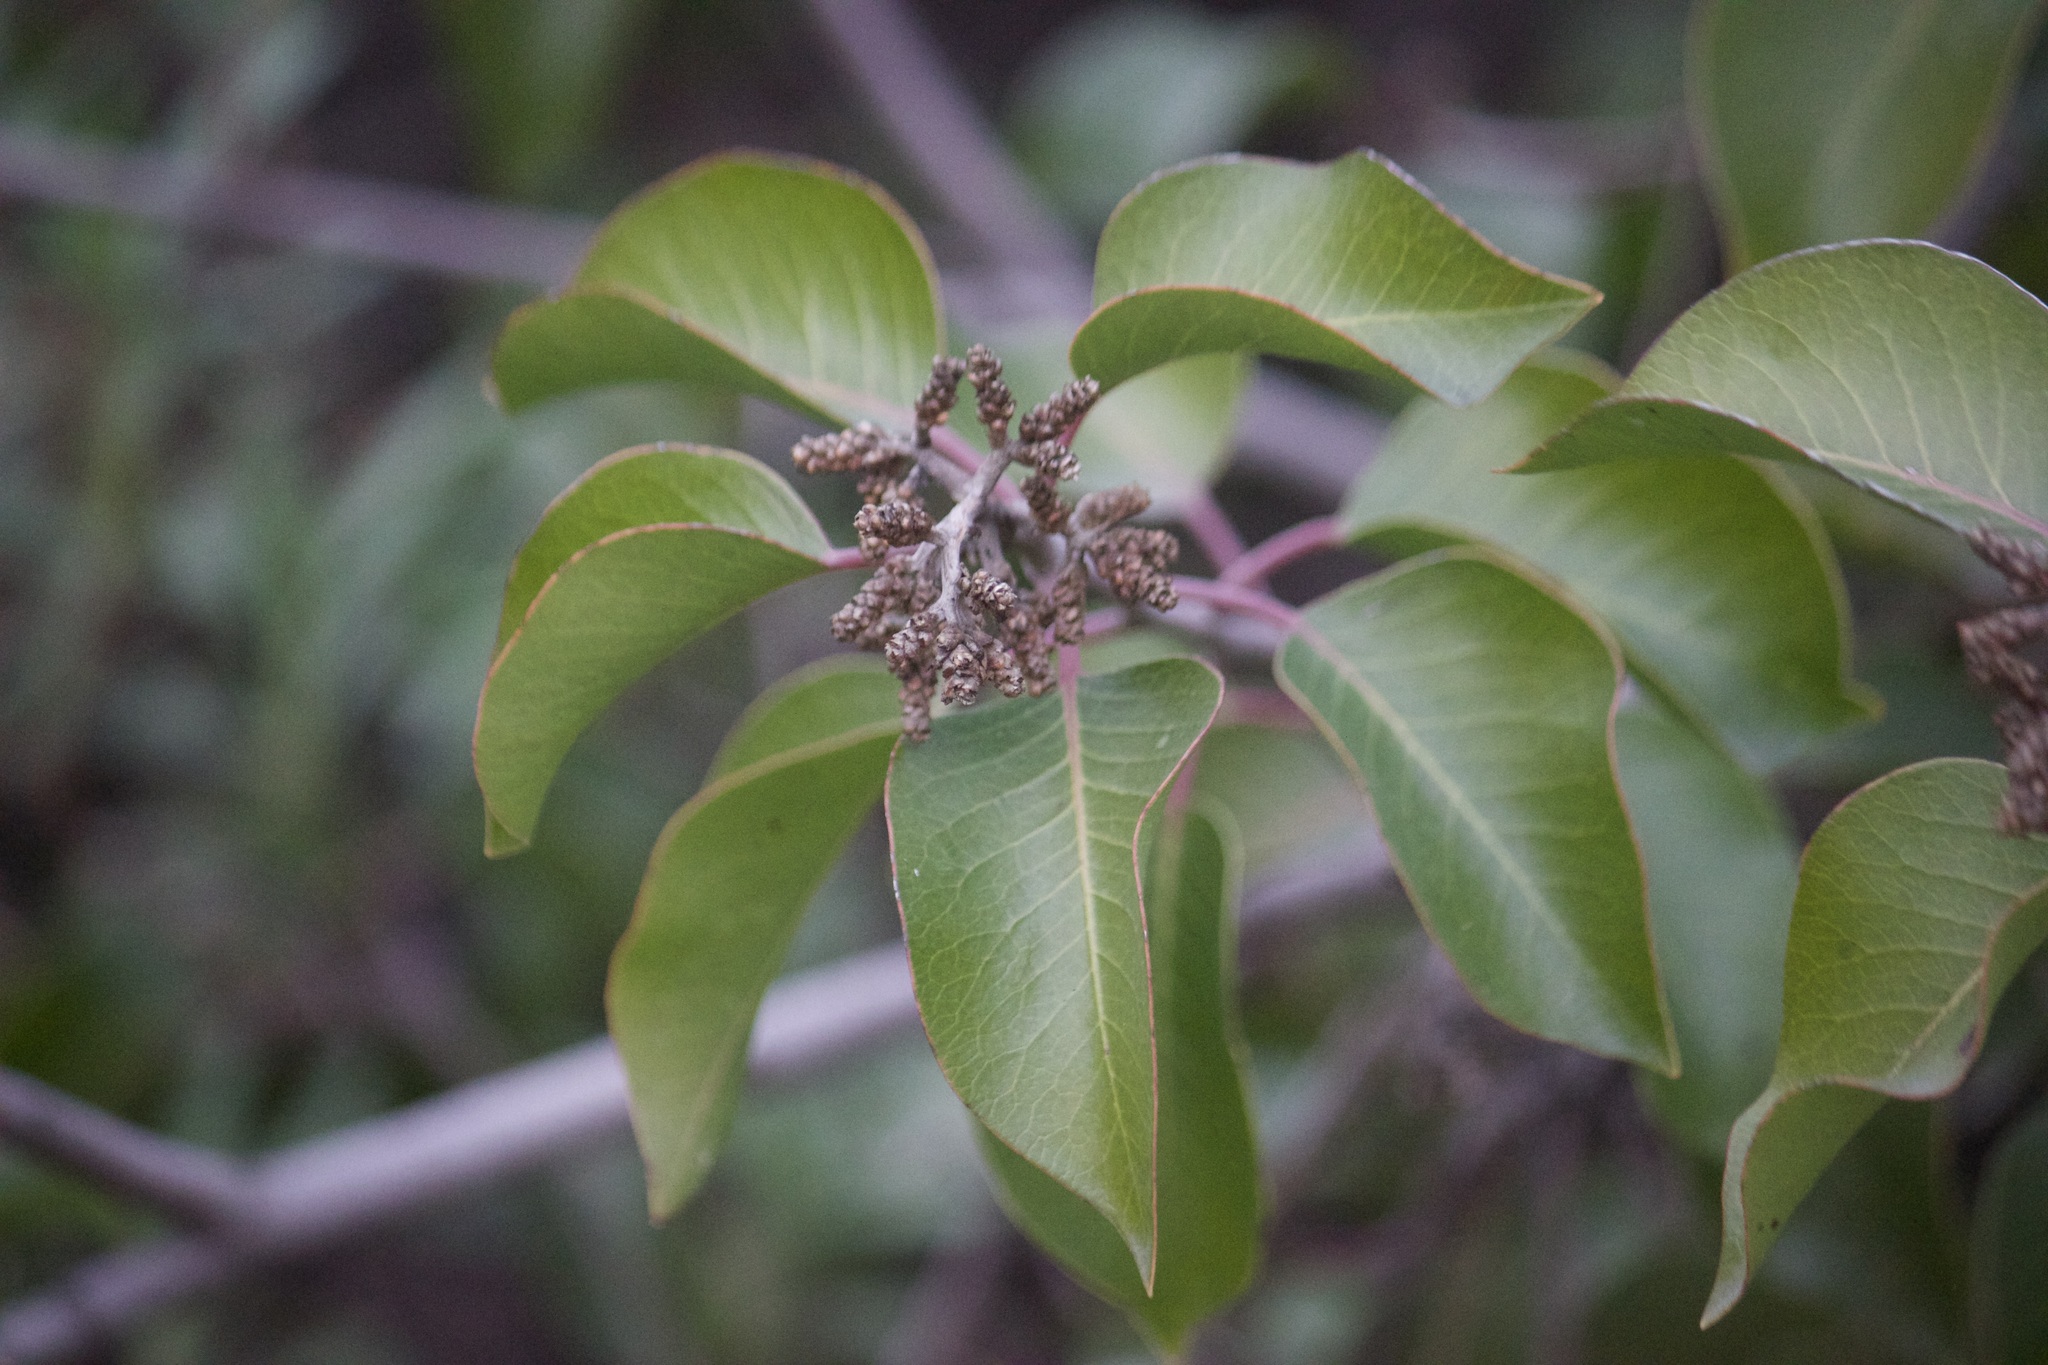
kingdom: Plantae
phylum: Tracheophyta
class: Magnoliopsida
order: Sapindales
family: Anacardiaceae
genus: Rhus
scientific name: Rhus ovata
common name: Sugar sumac
